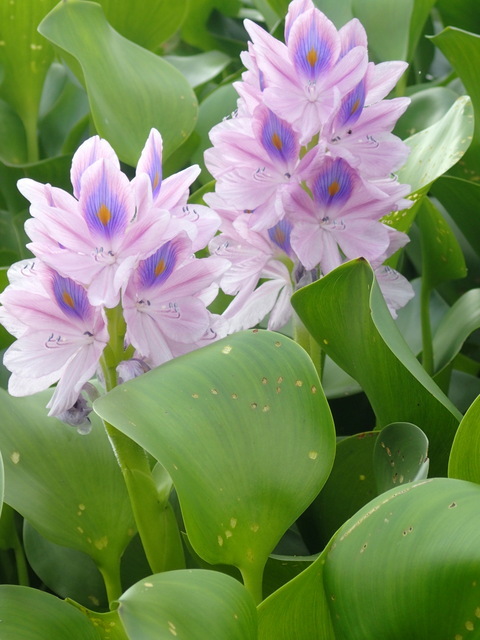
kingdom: Plantae
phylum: Tracheophyta
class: Liliopsida
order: Commelinales
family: Pontederiaceae
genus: Pontederia
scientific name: Pontederia crassipes
